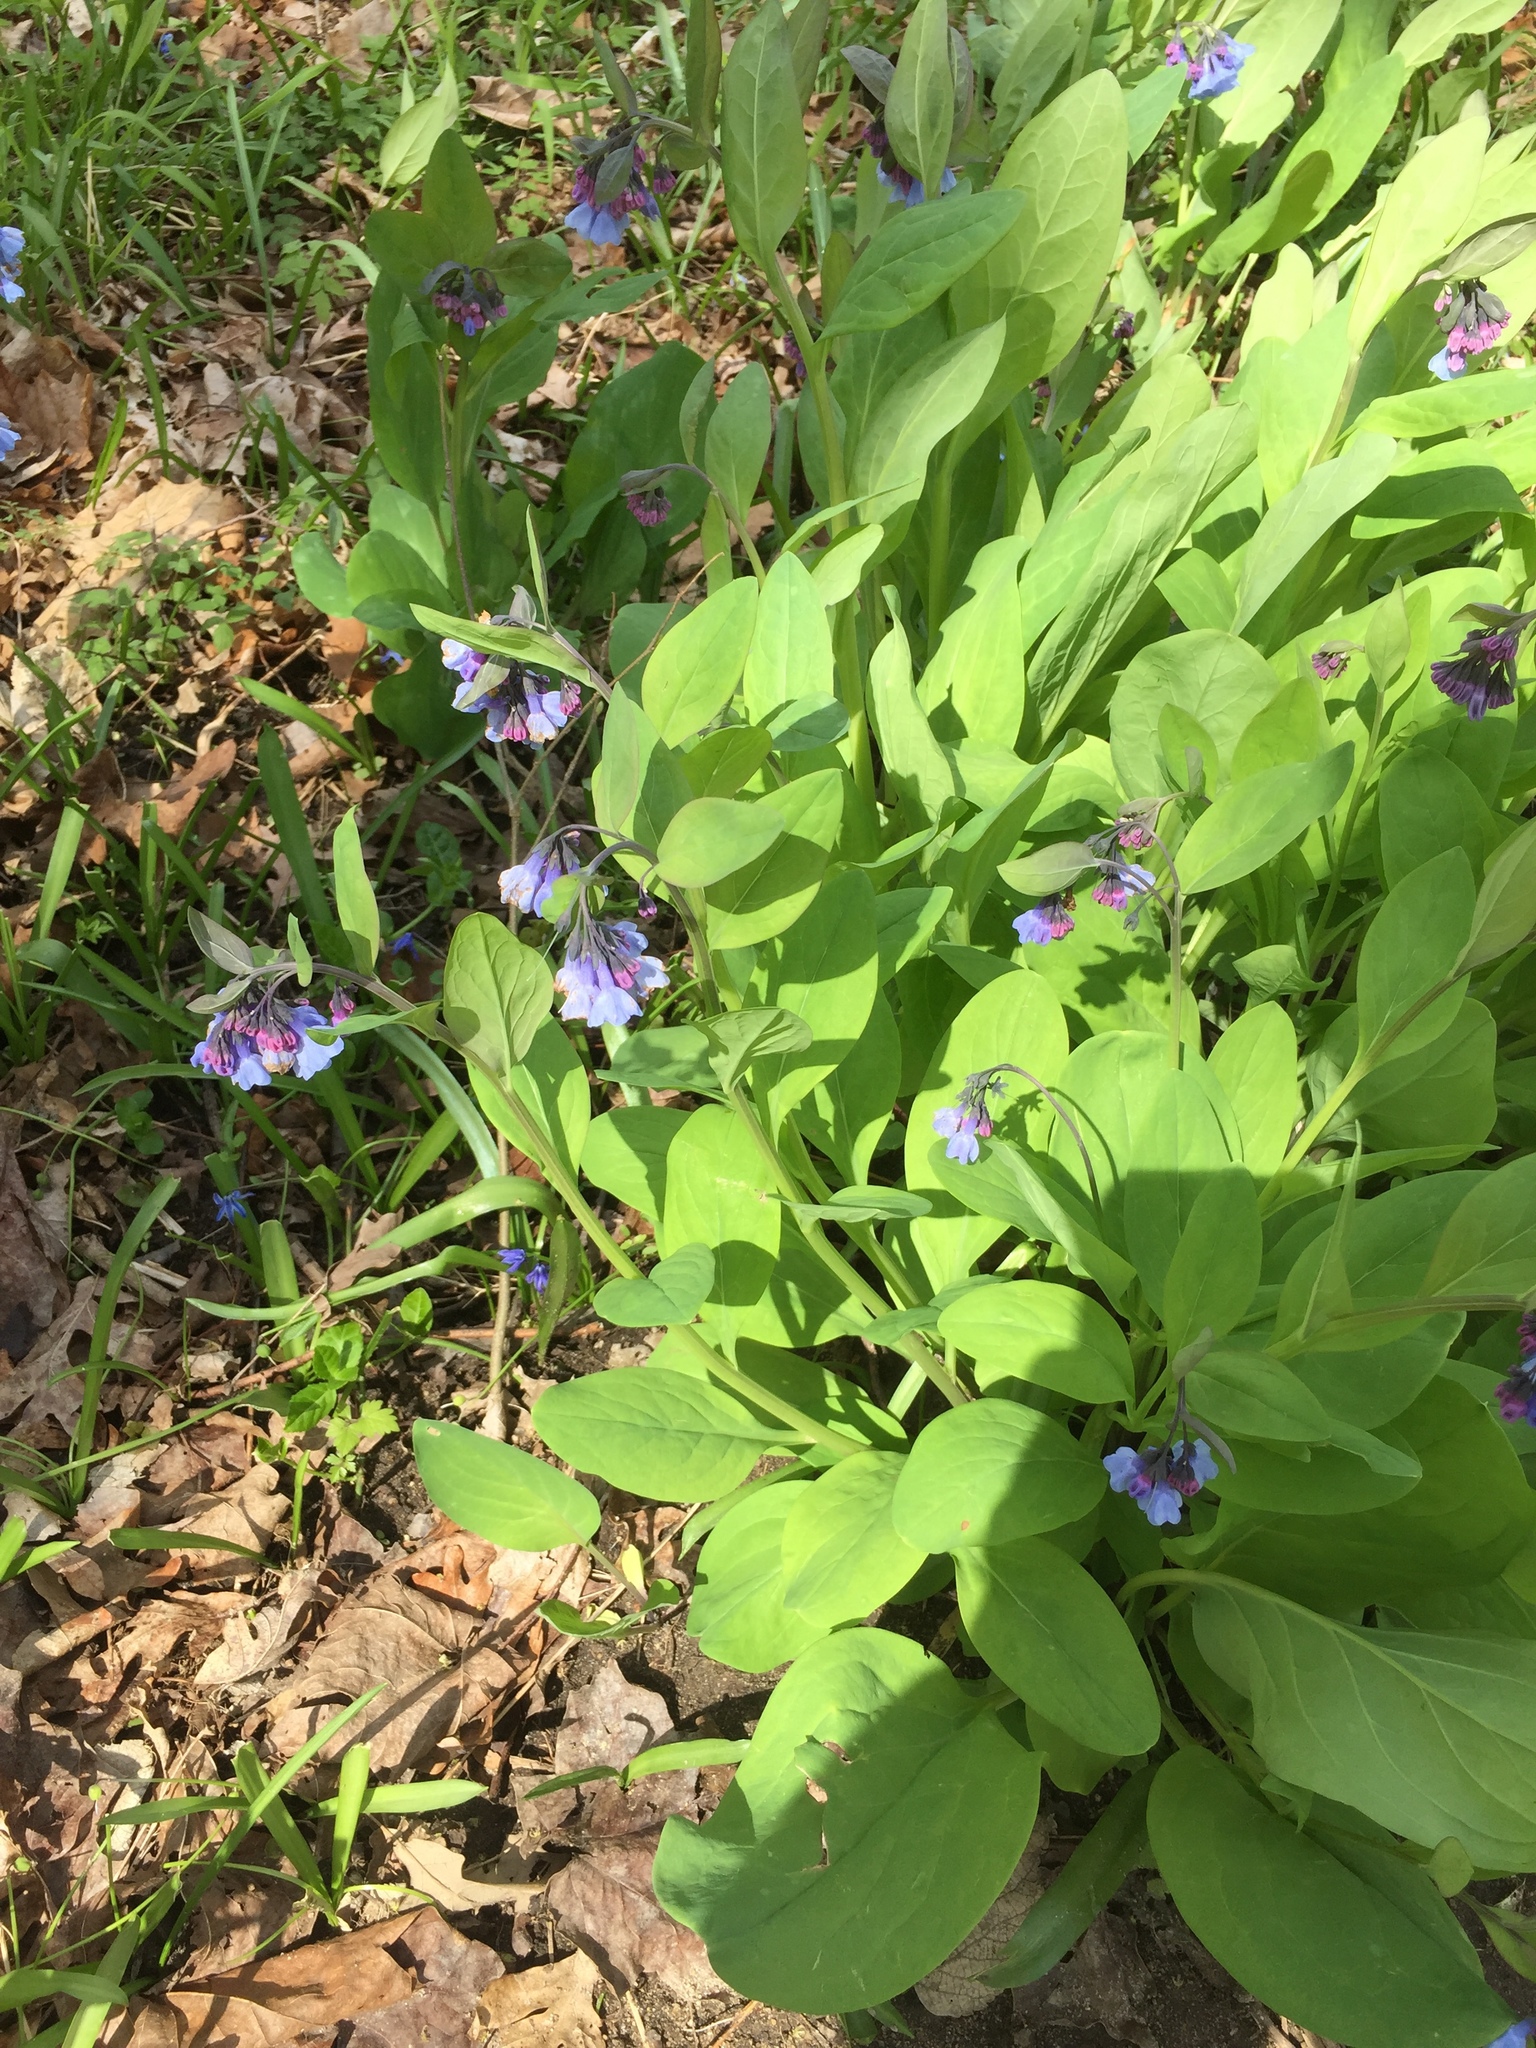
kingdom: Plantae
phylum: Tracheophyta
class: Magnoliopsida
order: Boraginales
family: Boraginaceae
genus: Mertensia
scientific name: Mertensia virginica
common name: Virginia bluebells
